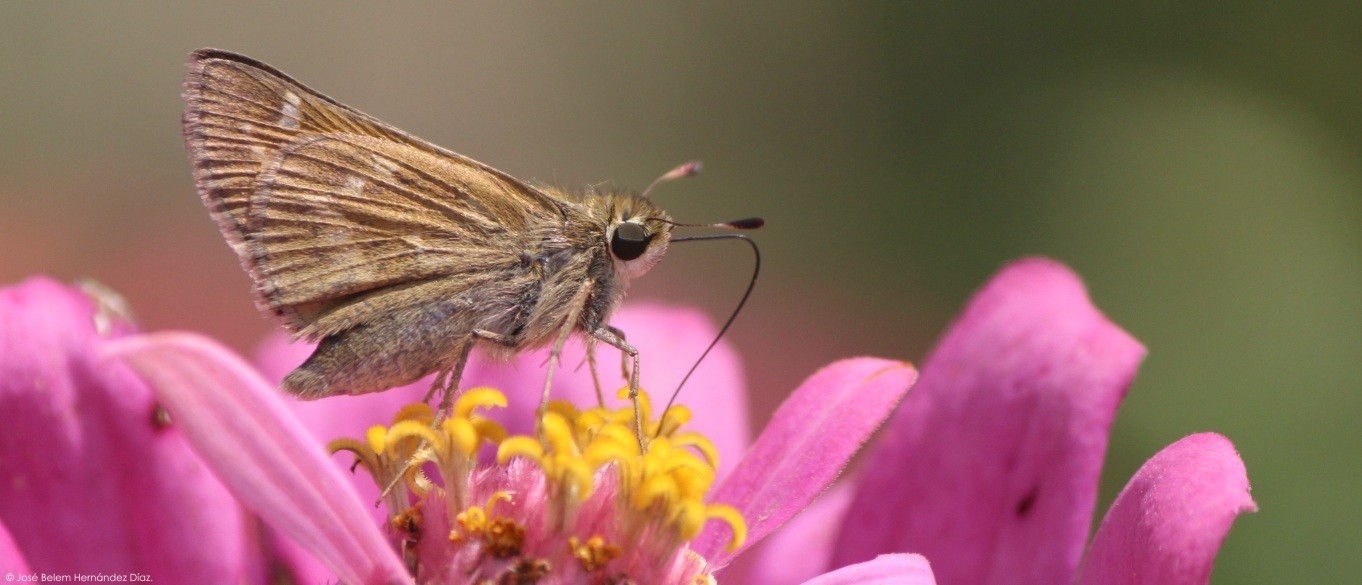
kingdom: Animalia
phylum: Arthropoda
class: Insecta
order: Lepidoptera
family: Hesperiidae
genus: Atalopedes
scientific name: Atalopedes
